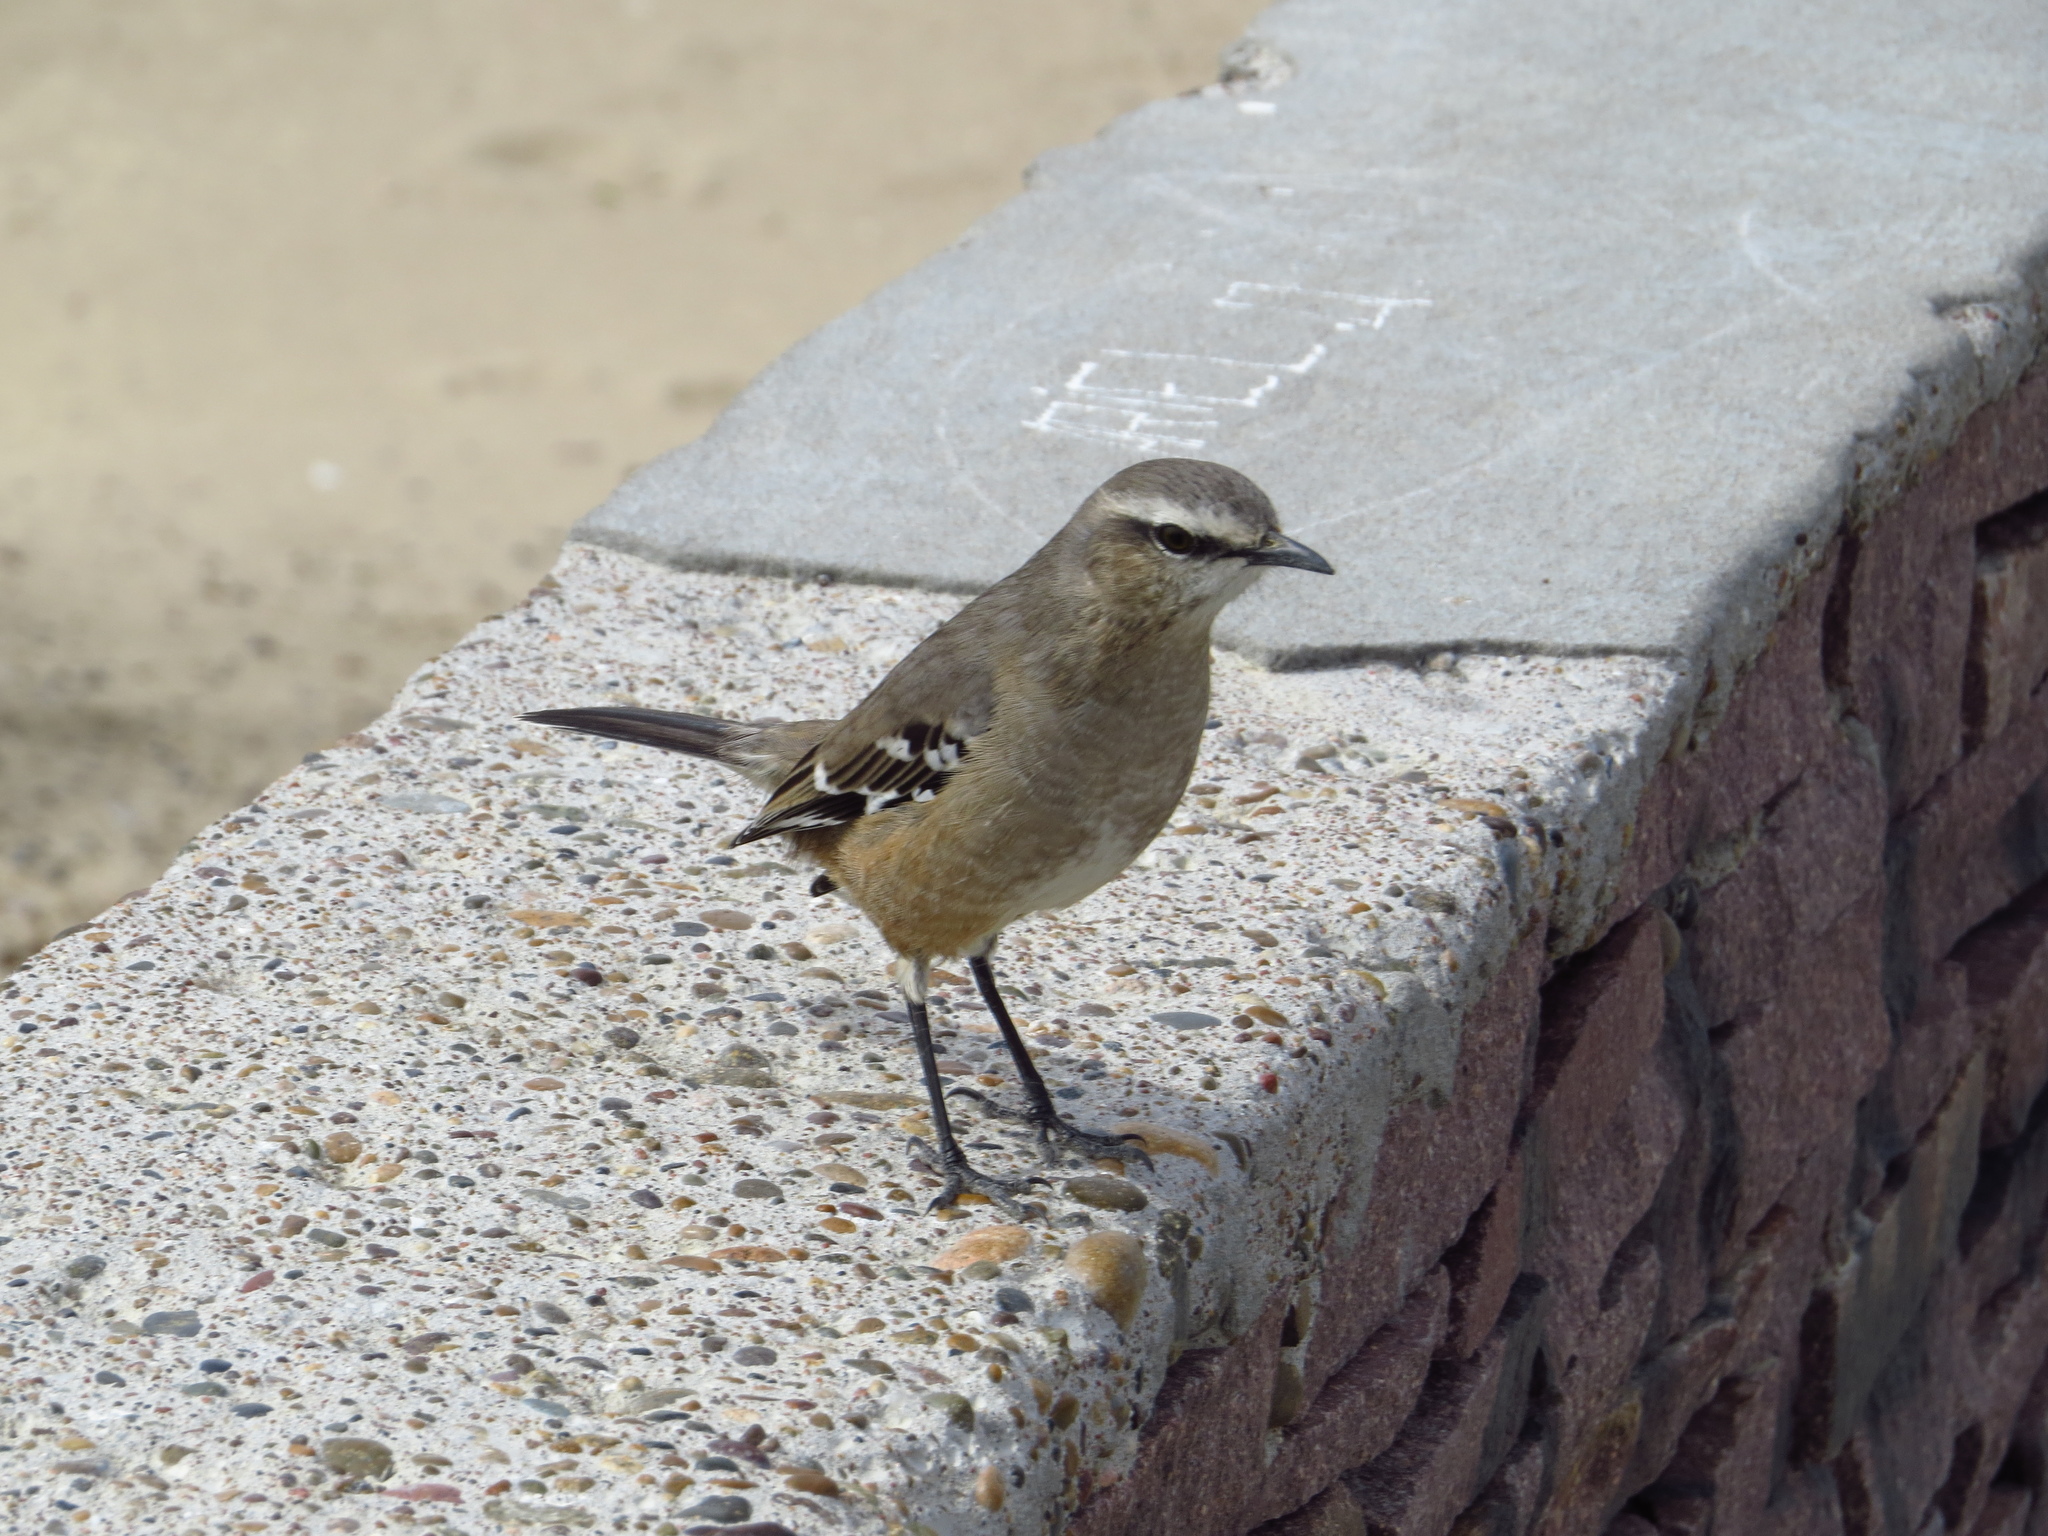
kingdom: Animalia
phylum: Chordata
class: Aves
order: Passeriformes
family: Mimidae
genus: Mimus
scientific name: Mimus patagonicus
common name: Patagonian mockingbird
